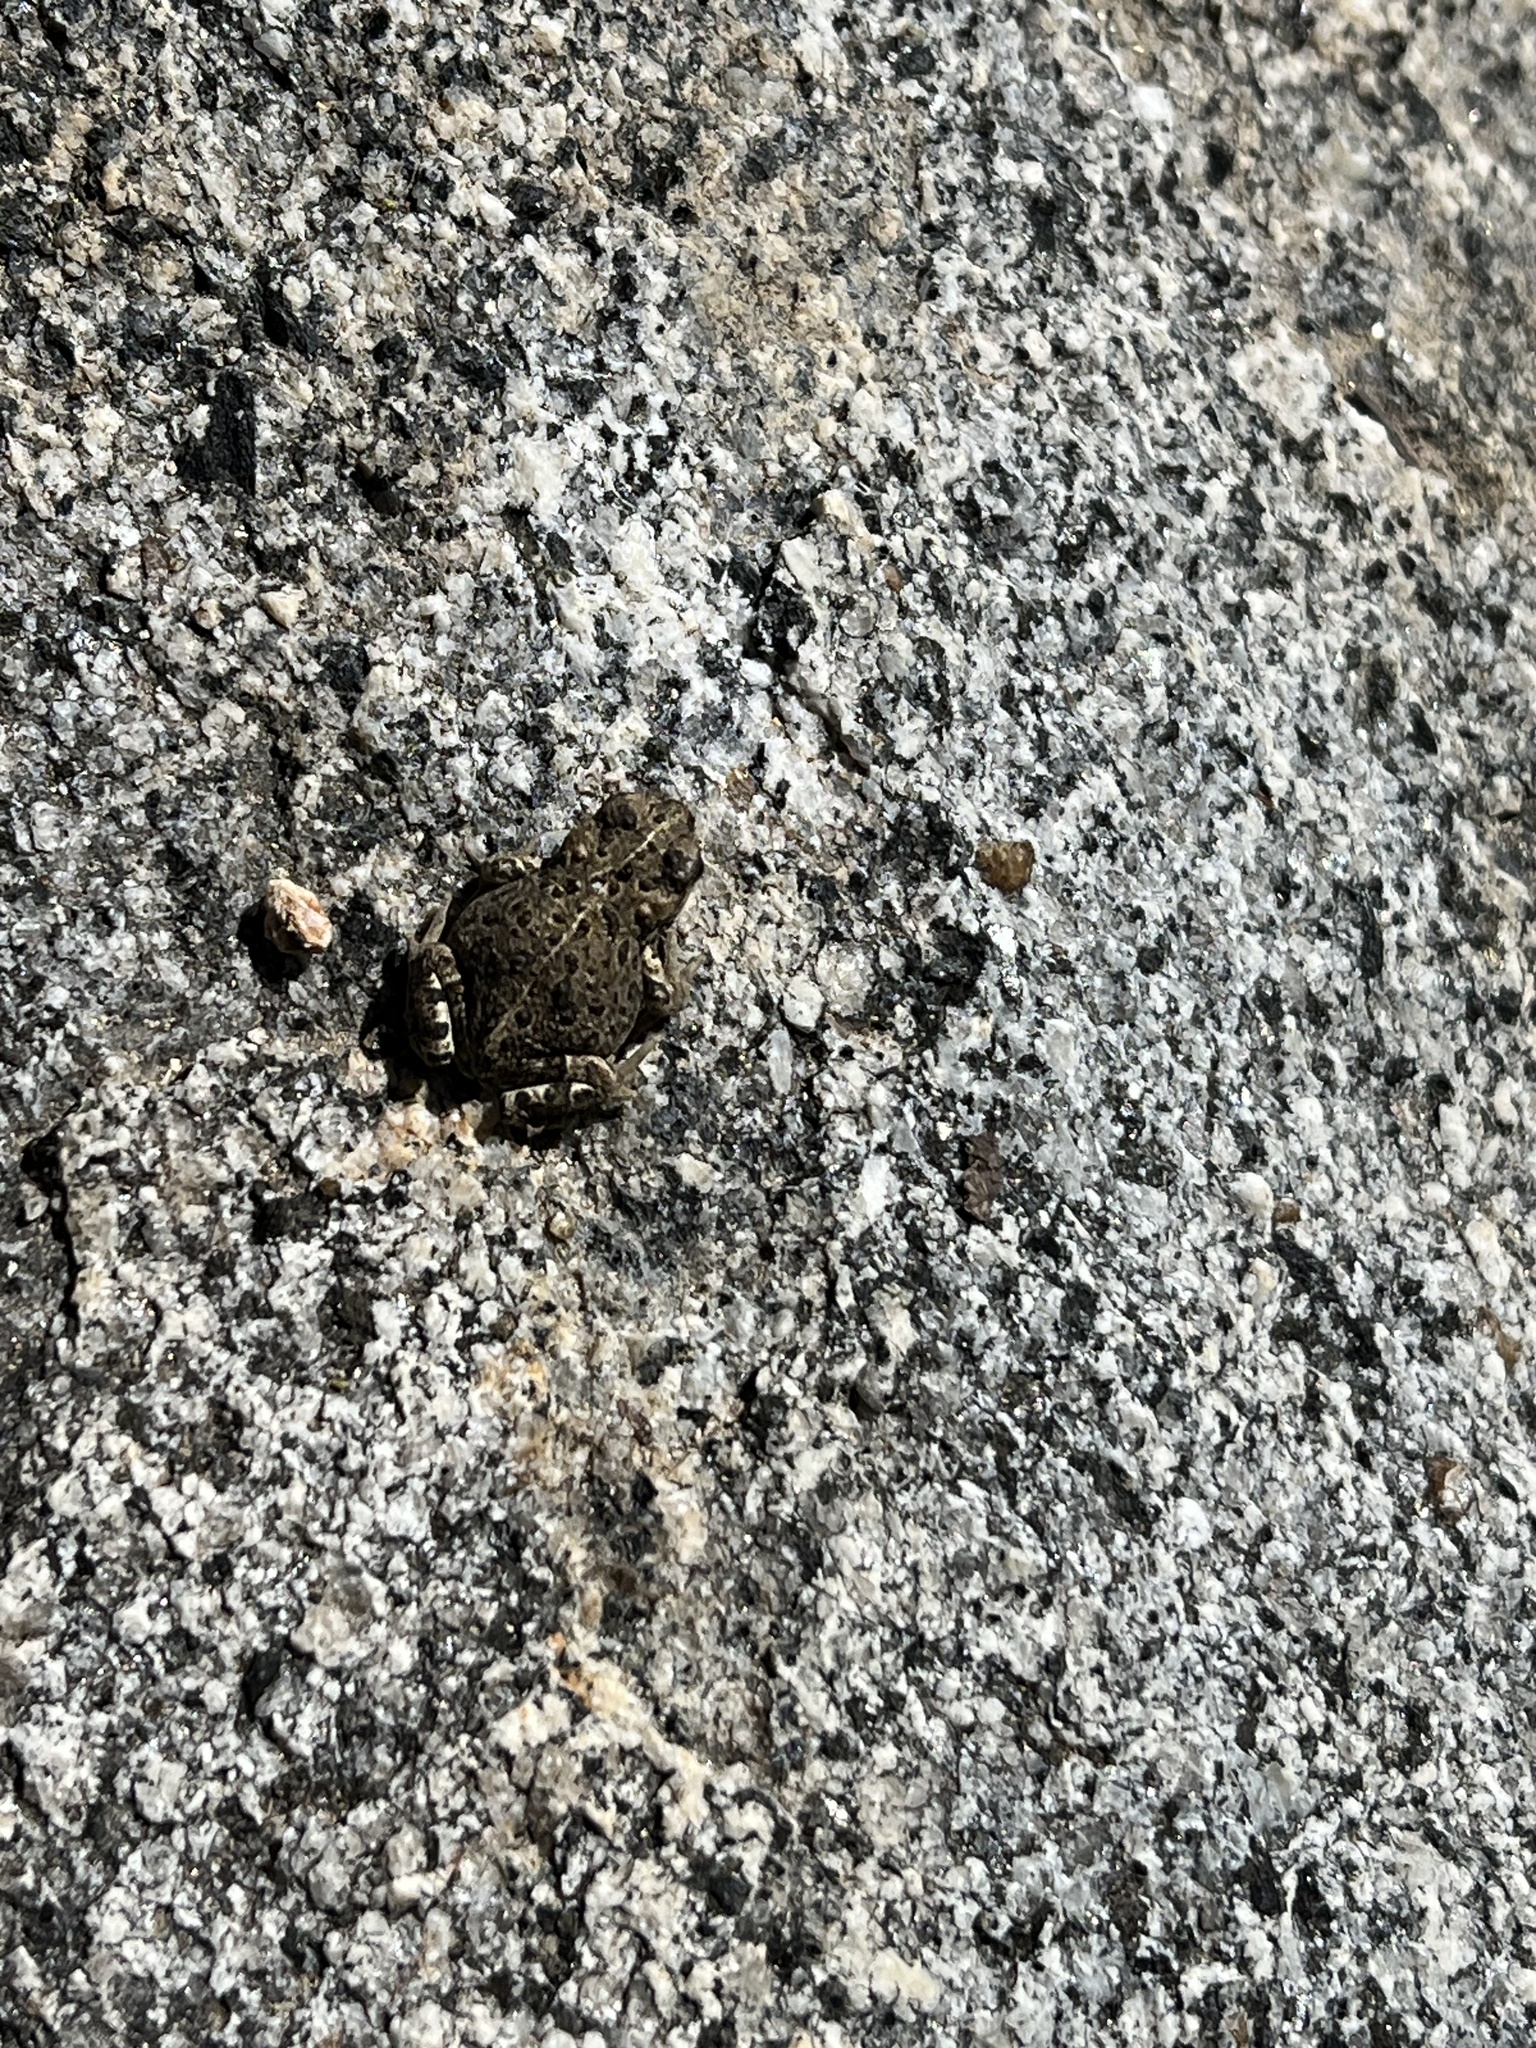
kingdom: Animalia
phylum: Chordata
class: Amphibia
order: Anura
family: Bufonidae
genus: Anaxyrus
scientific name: Anaxyrus boreas
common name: Western toad
